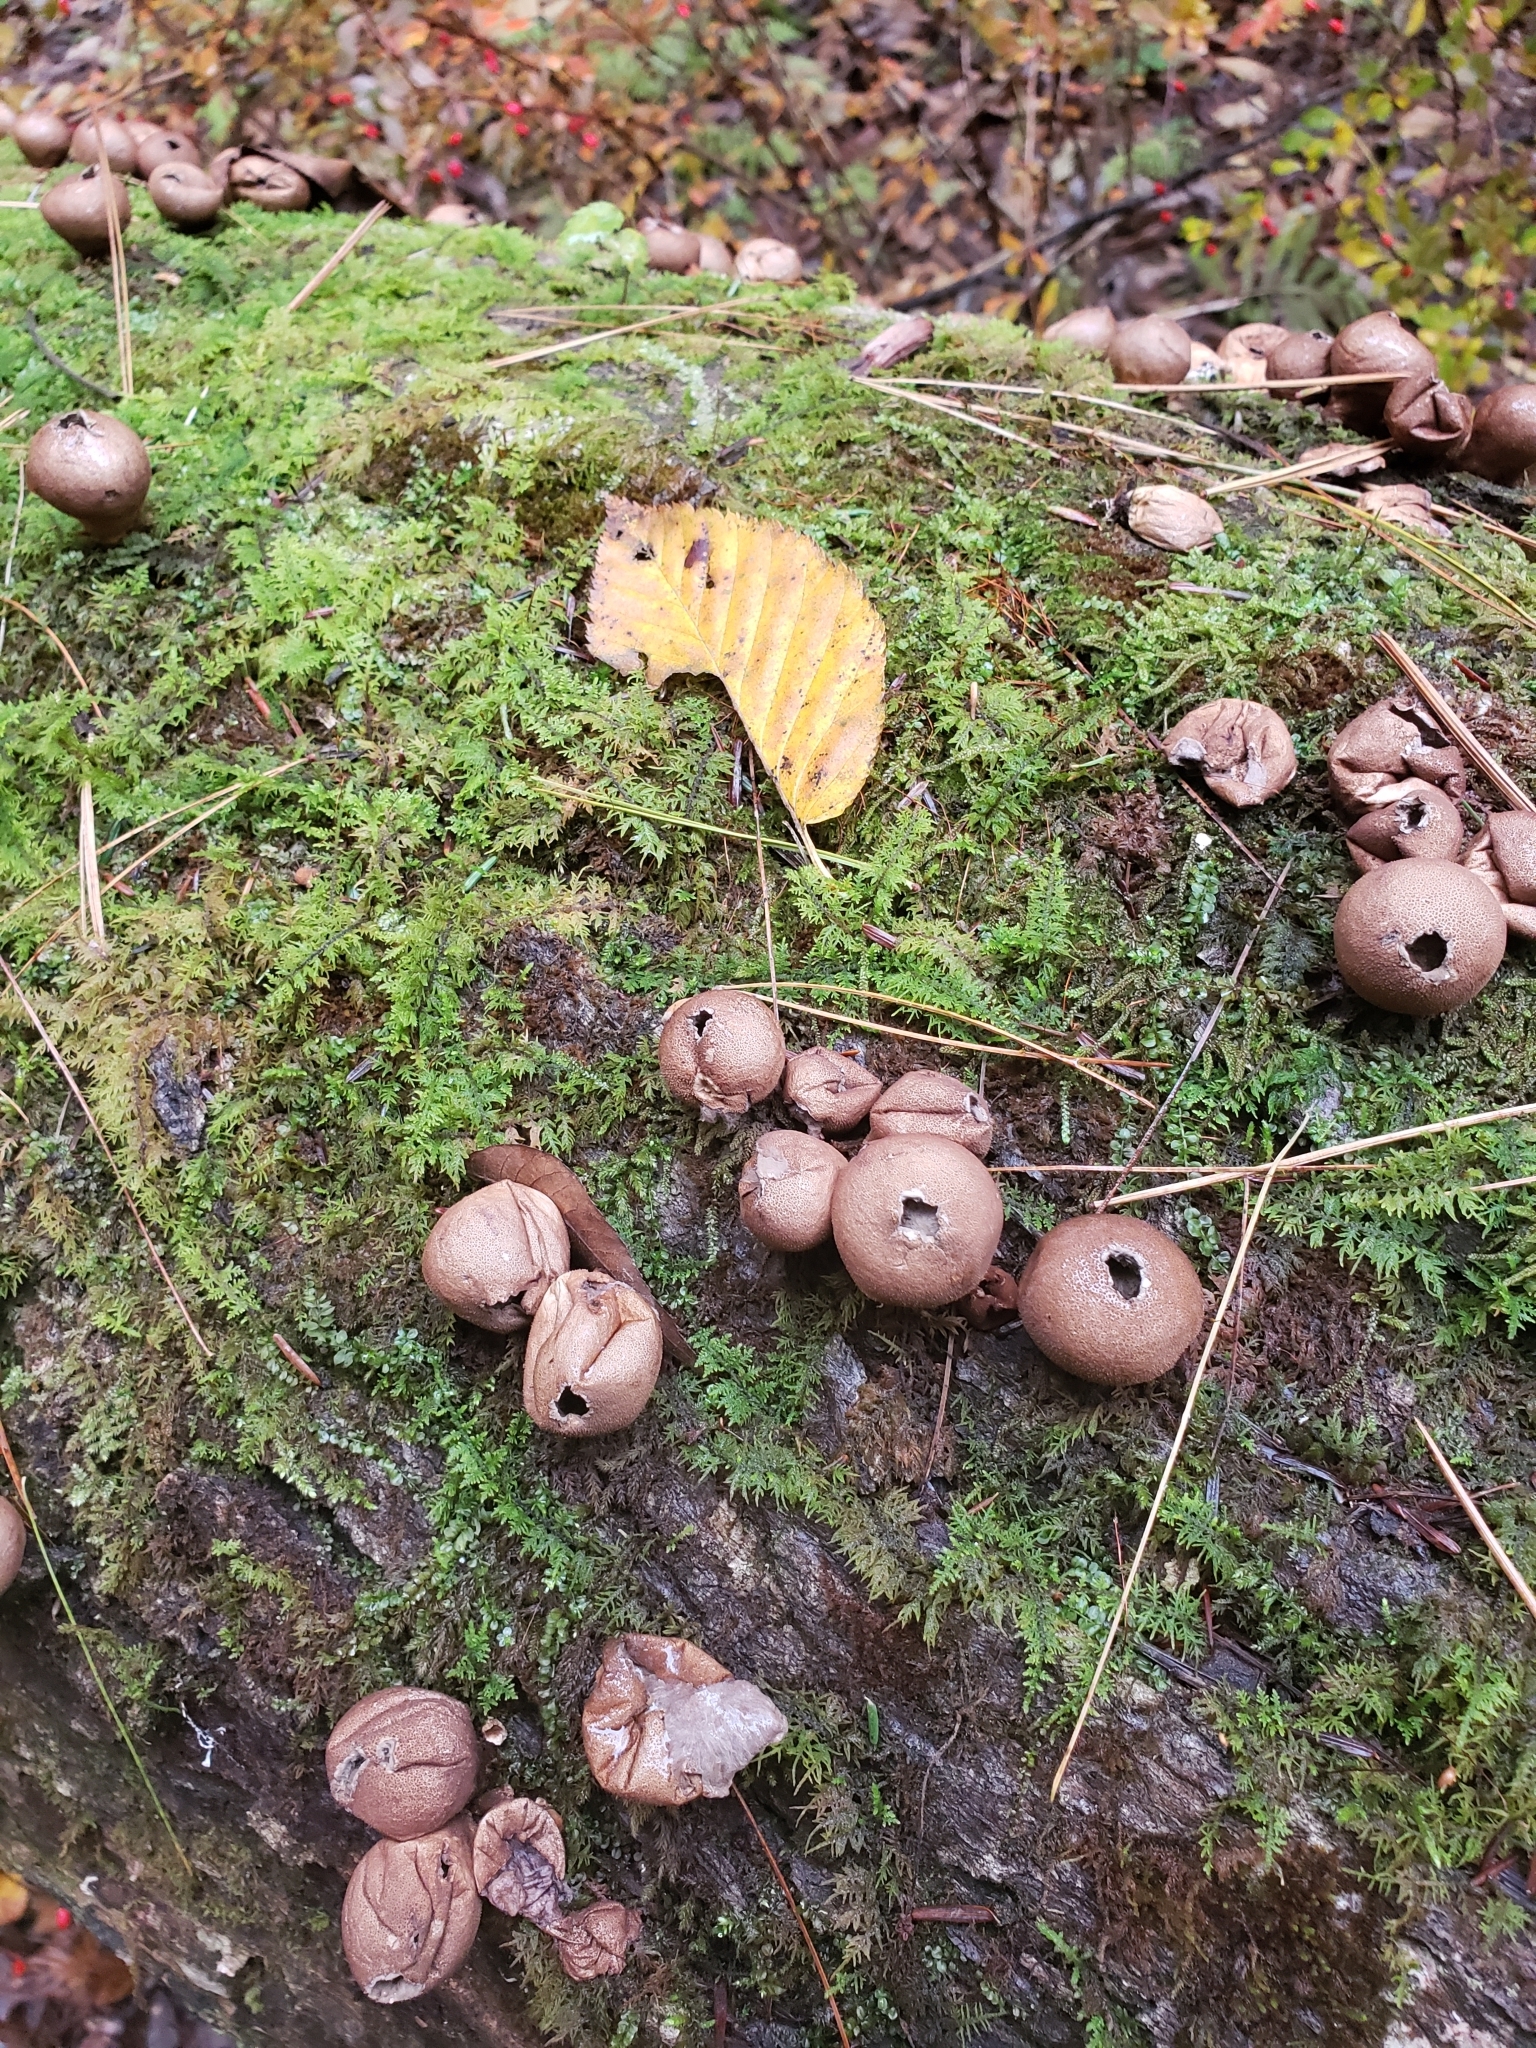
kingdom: Fungi
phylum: Basidiomycota
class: Agaricomycetes
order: Agaricales
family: Lycoperdaceae
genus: Apioperdon
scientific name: Apioperdon pyriforme
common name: Pear-shaped puffball
